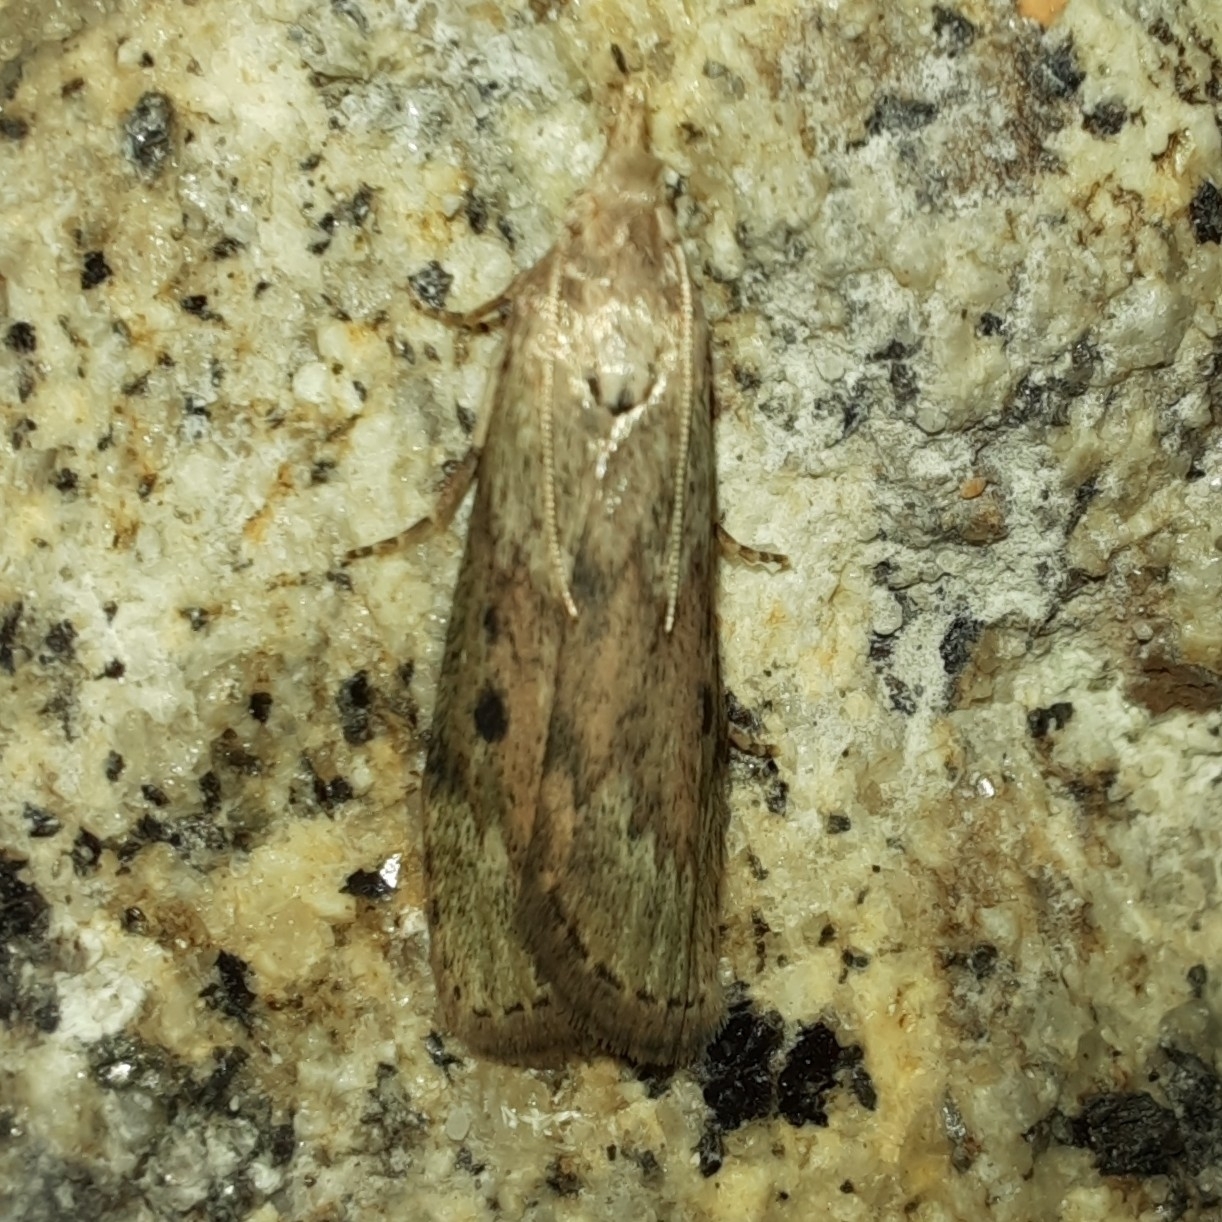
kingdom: Animalia
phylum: Arthropoda
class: Insecta
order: Lepidoptera
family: Pyralidae
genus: Aphomia
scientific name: Aphomia sociella
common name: Bee moth
